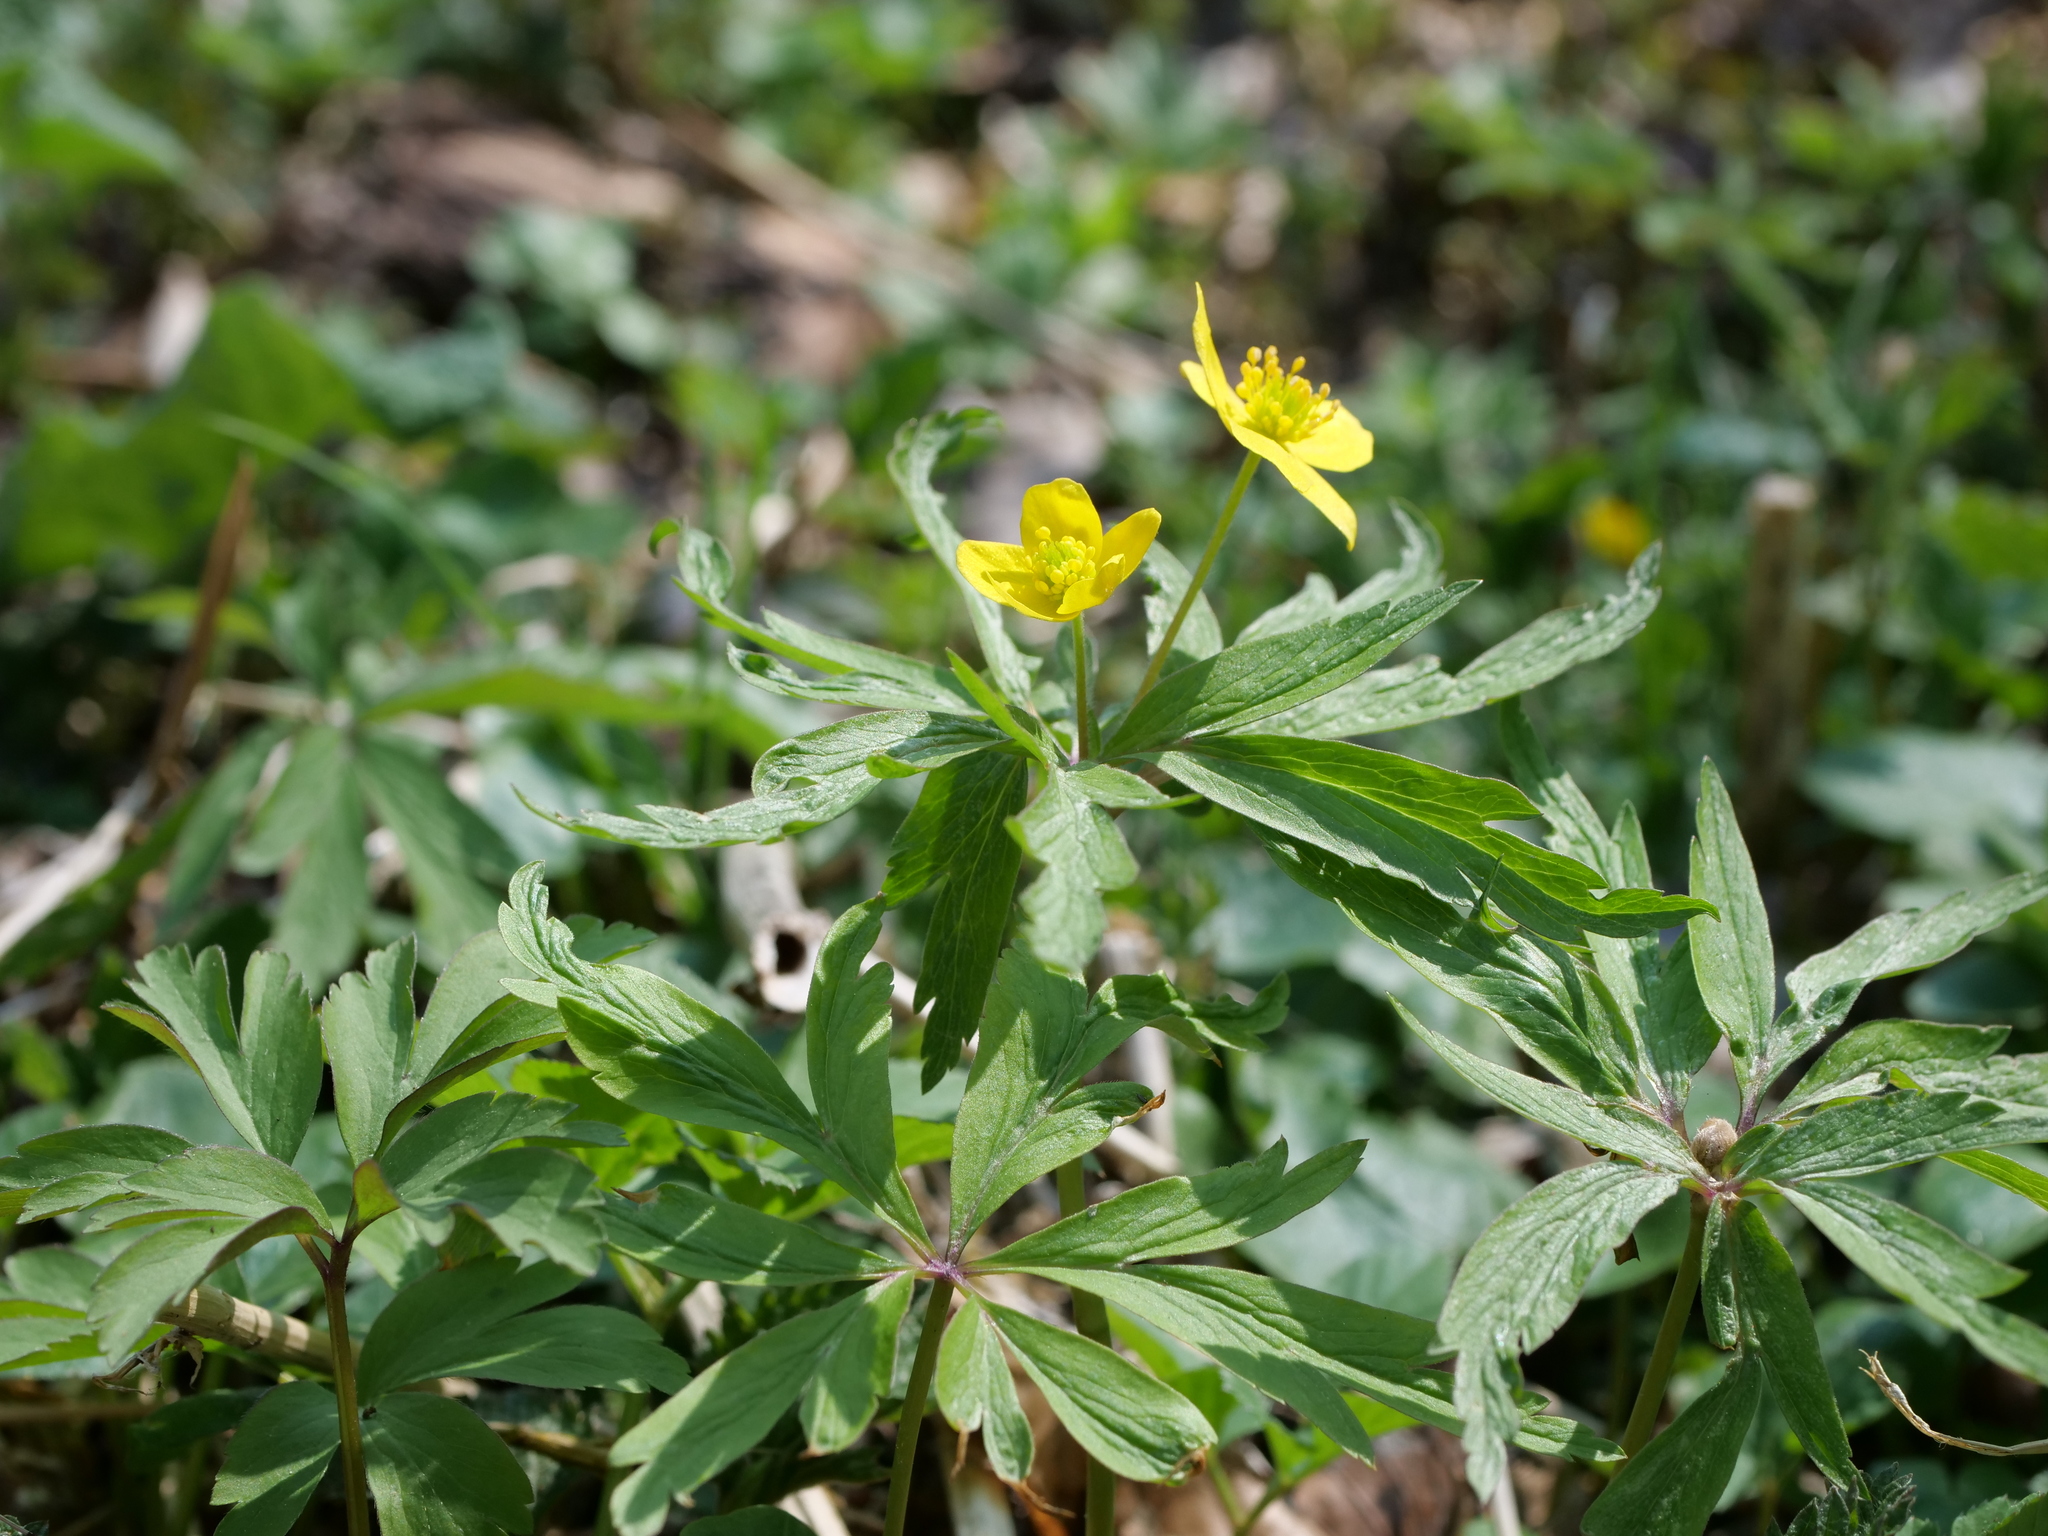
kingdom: Plantae
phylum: Tracheophyta
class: Magnoliopsida
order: Ranunculales
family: Ranunculaceae
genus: Anemone
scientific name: Anemone ranunculoides
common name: Yellow anemone
